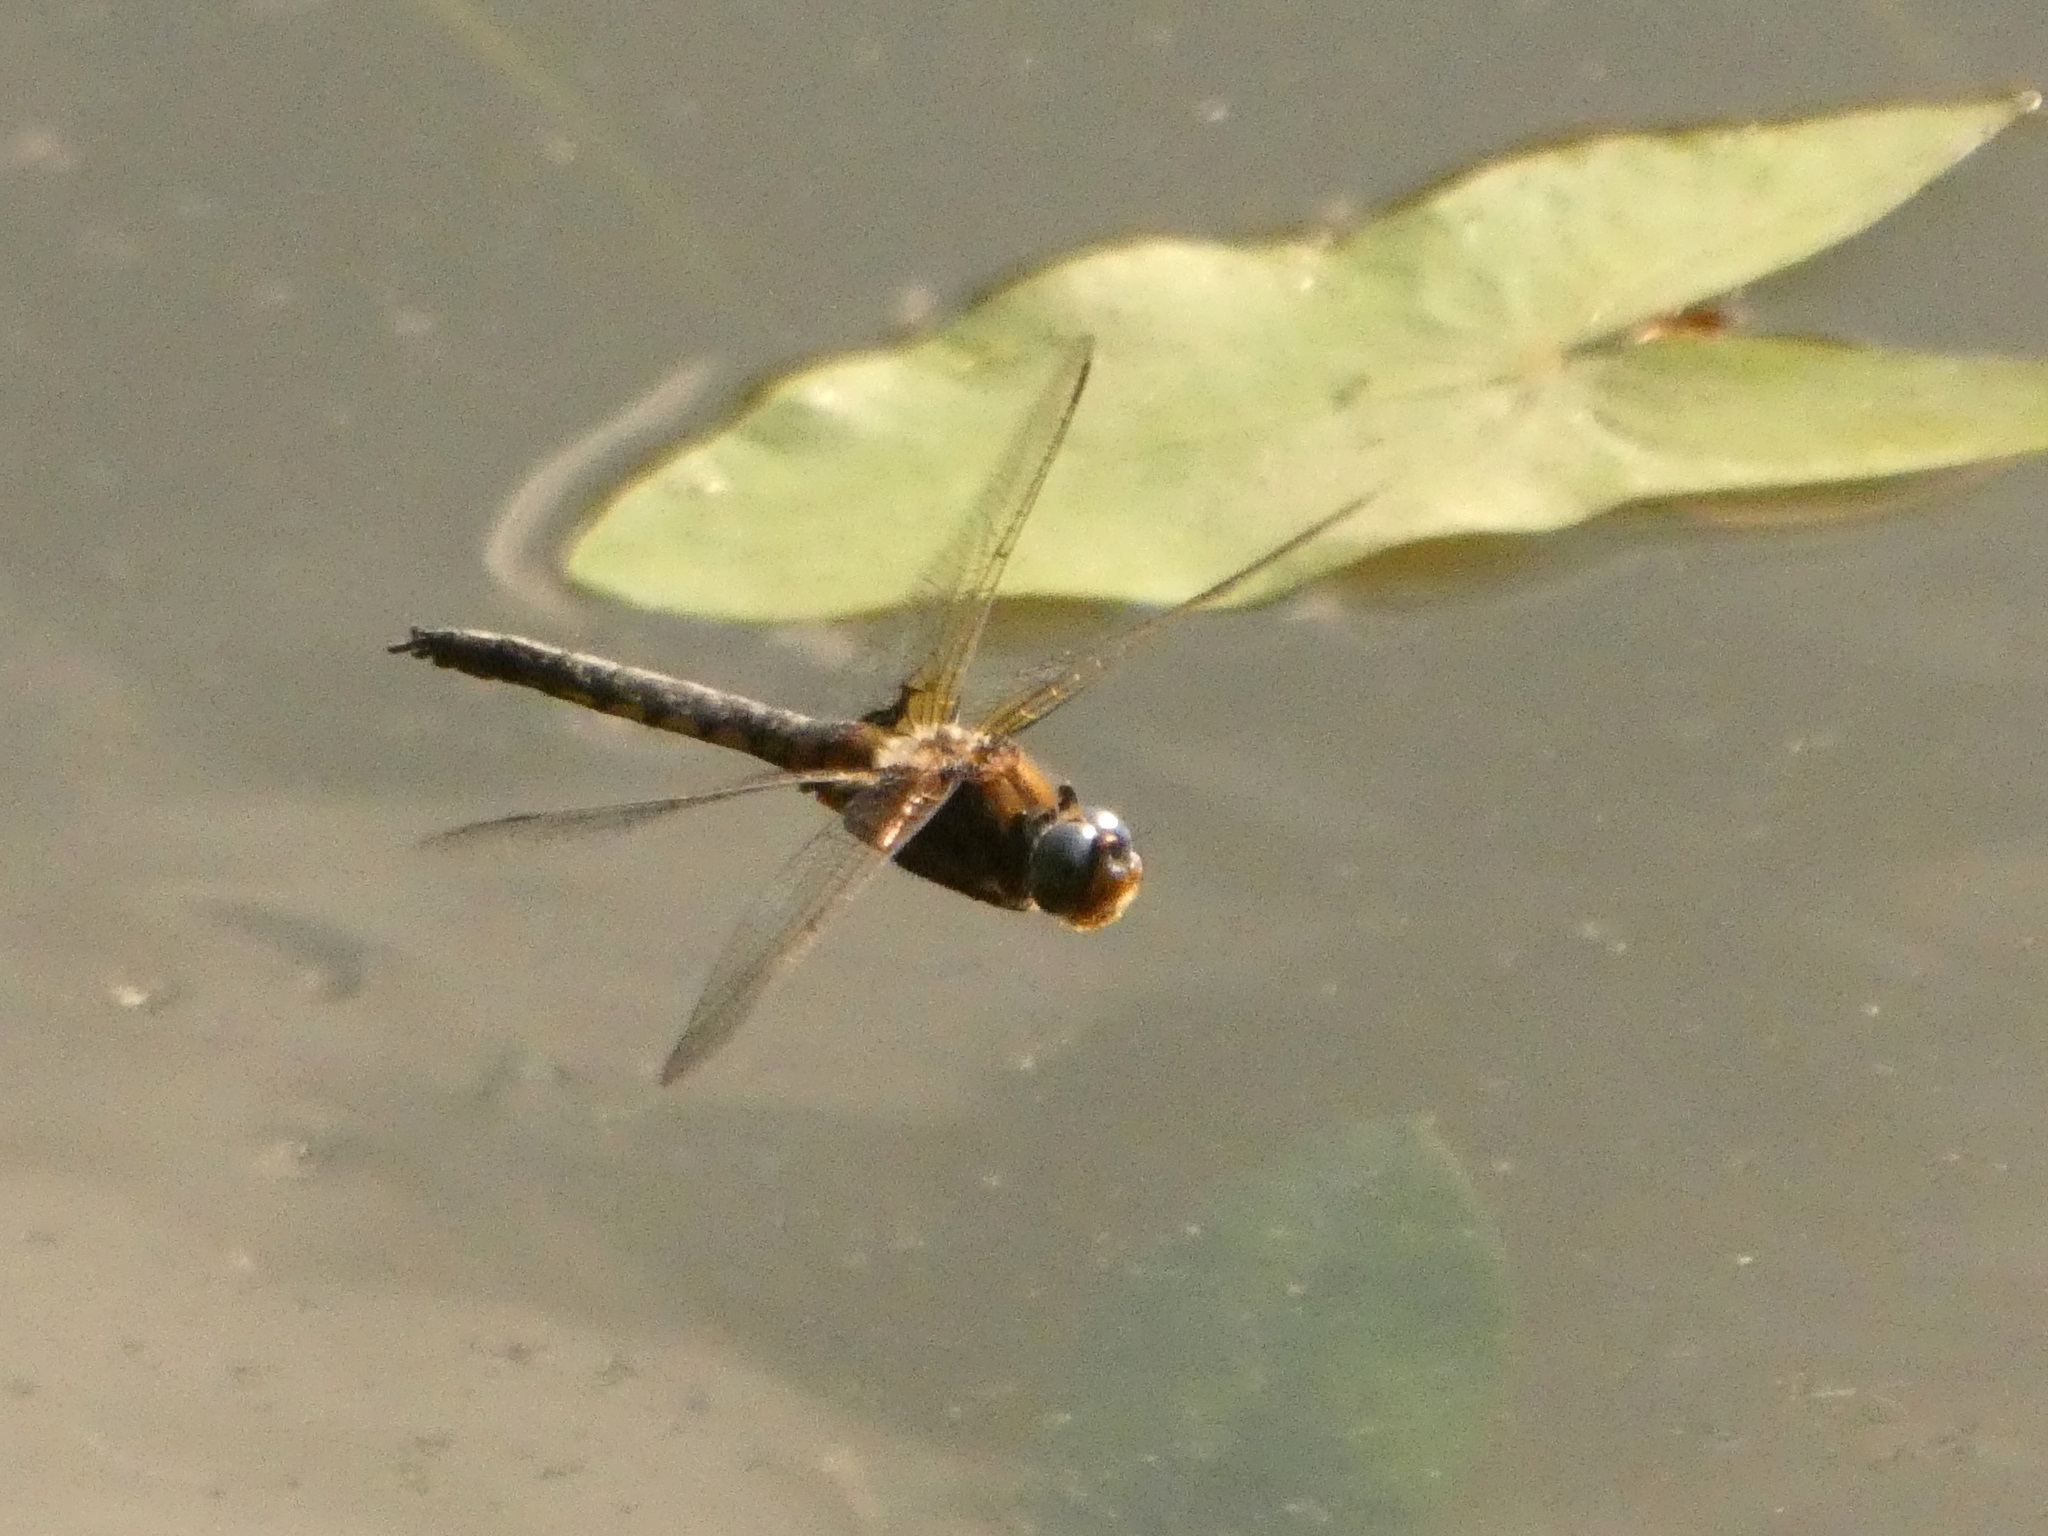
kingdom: Animalia
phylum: Arthropoda
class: Insecta
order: Odonata
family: Corduliidae
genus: Epitheca
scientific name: Epitheca bimaculata
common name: Eurasian baskettail
